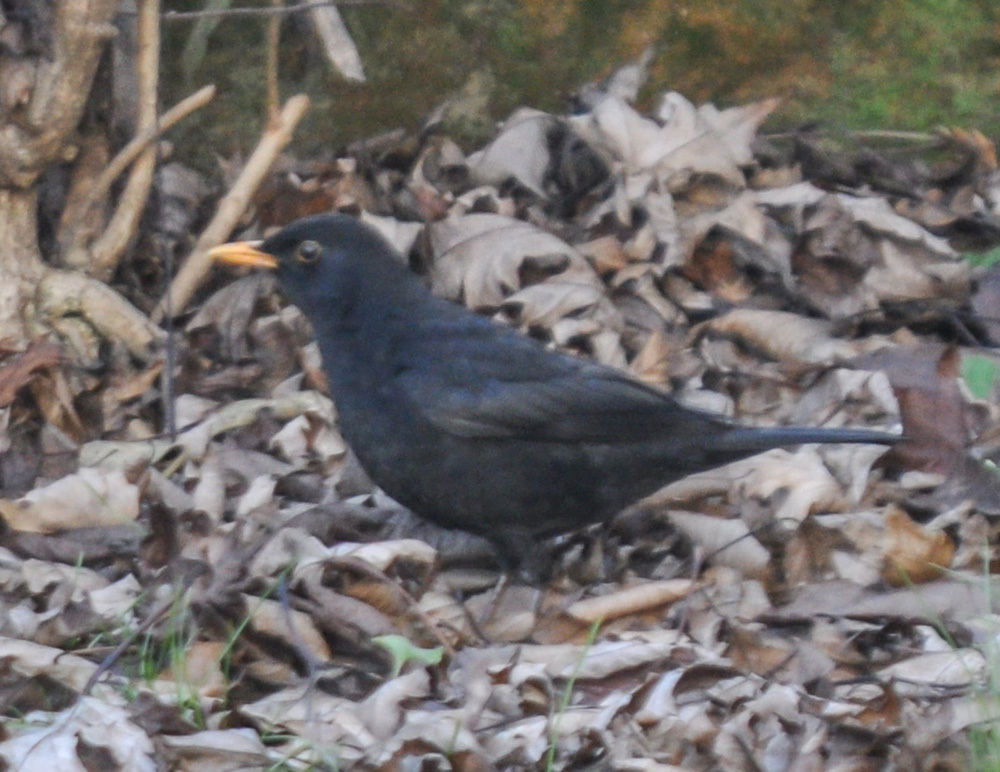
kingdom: Animalia
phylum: Chordata
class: Aves
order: Passeriformes
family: Turdidae
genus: Turdus
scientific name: Turdus merula
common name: Common blackbird
